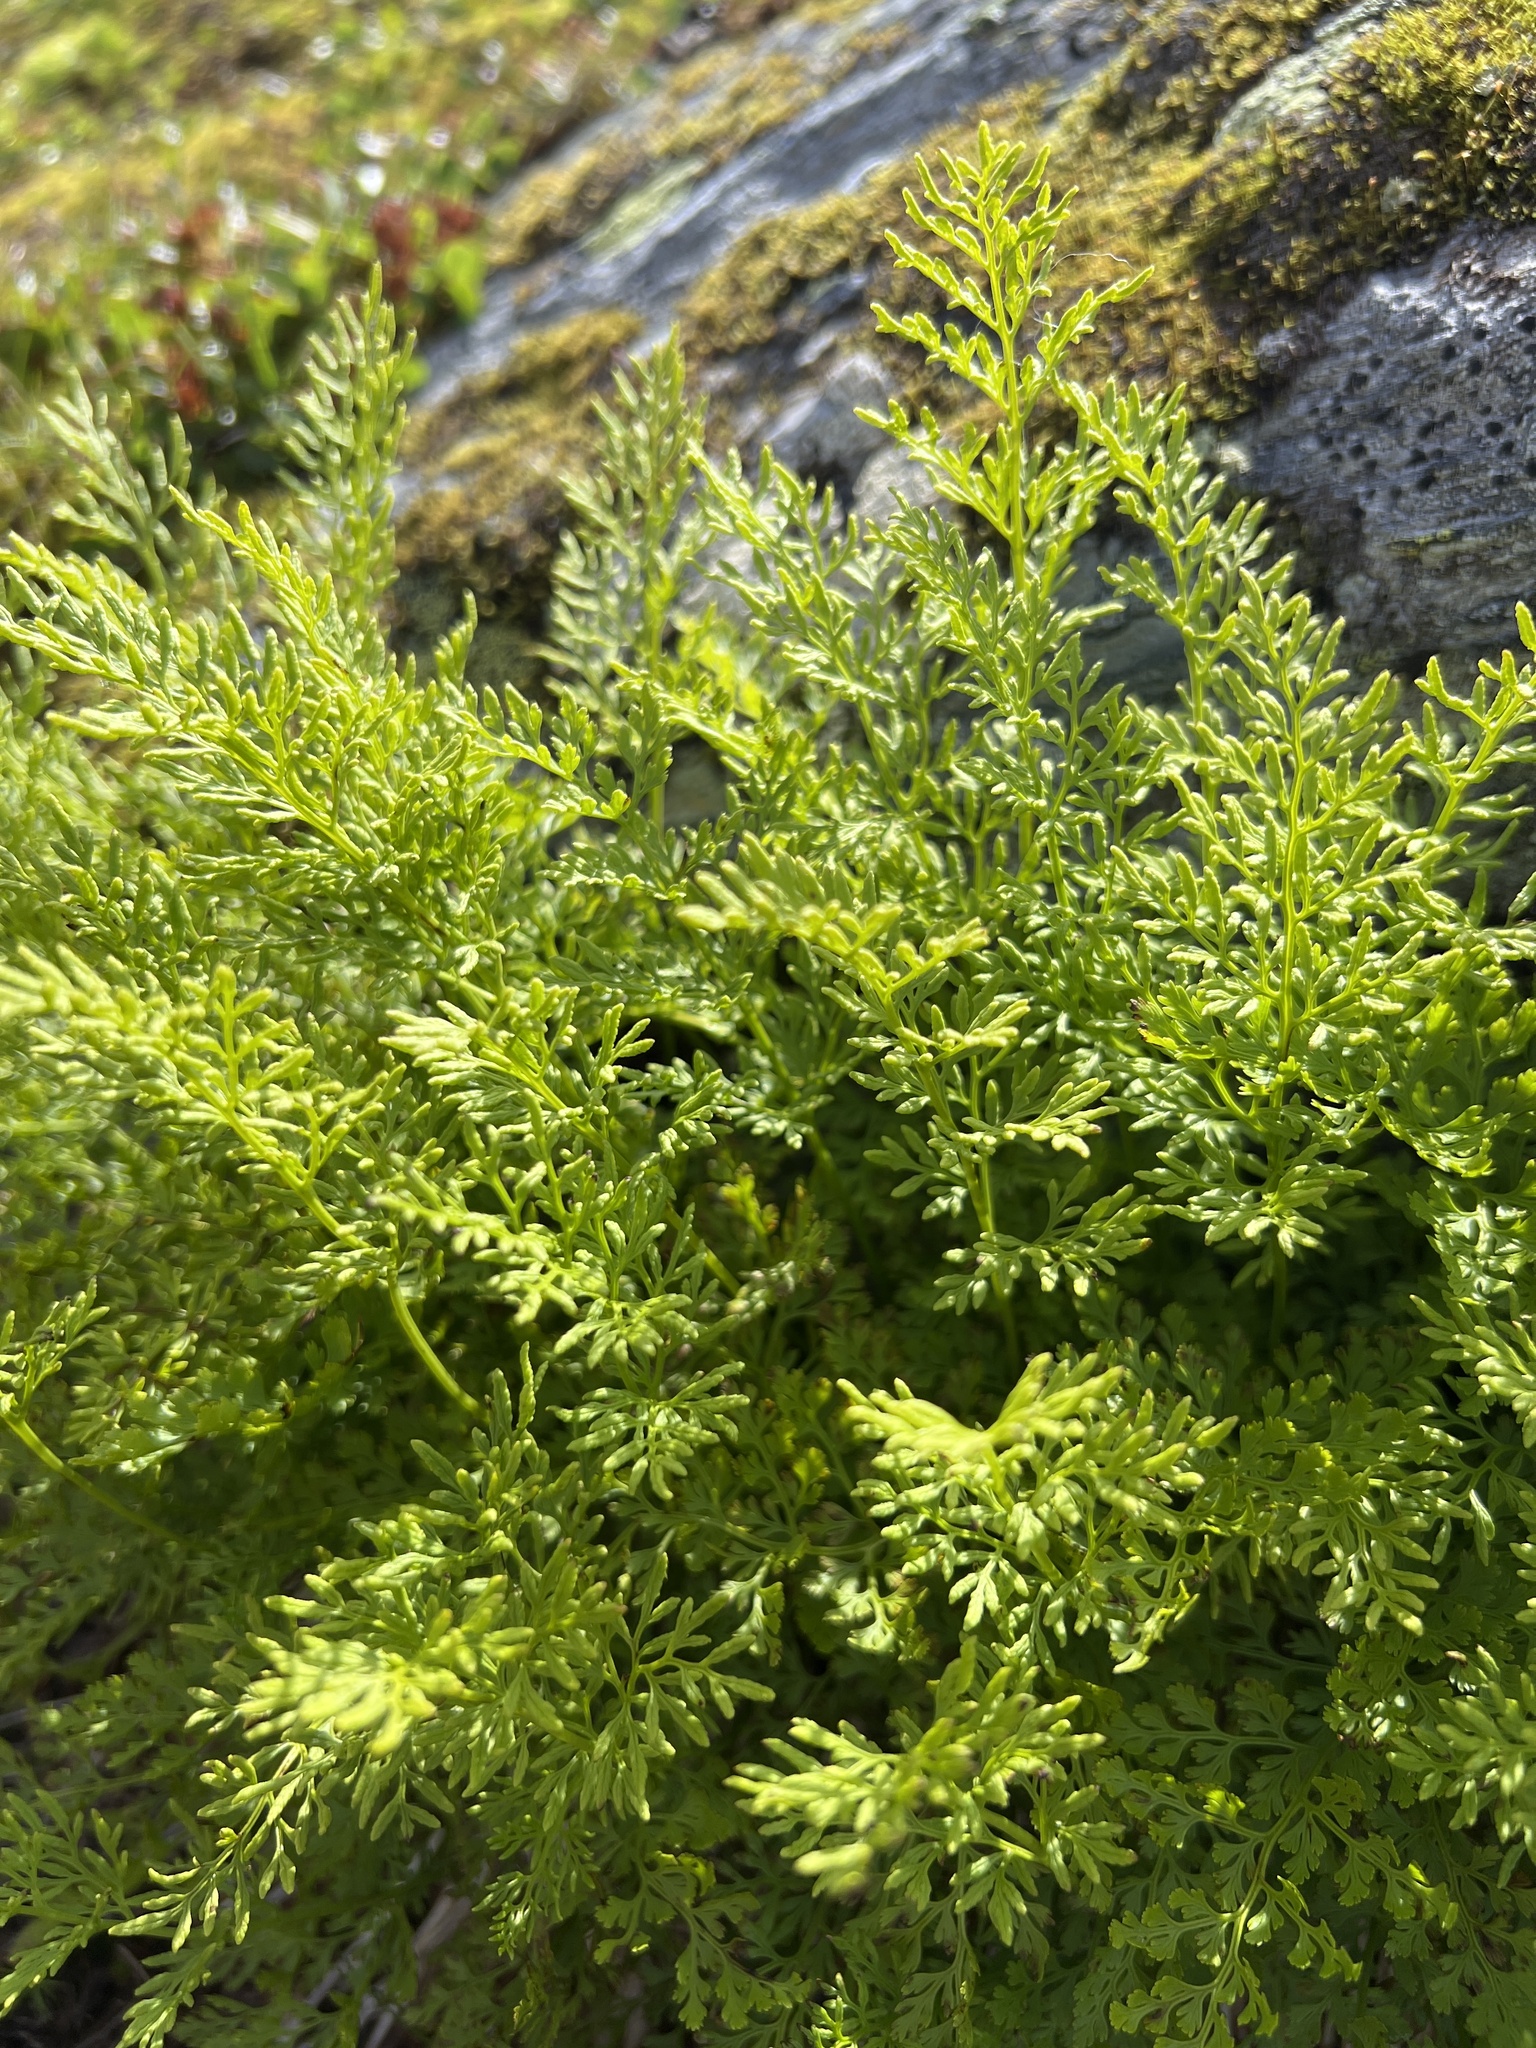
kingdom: Plantae
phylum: Tracheophyta
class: Polypodiopsida
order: Polypodiales
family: Pteridaceae
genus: Cryptogramma
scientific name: Cryptogramma crispa
